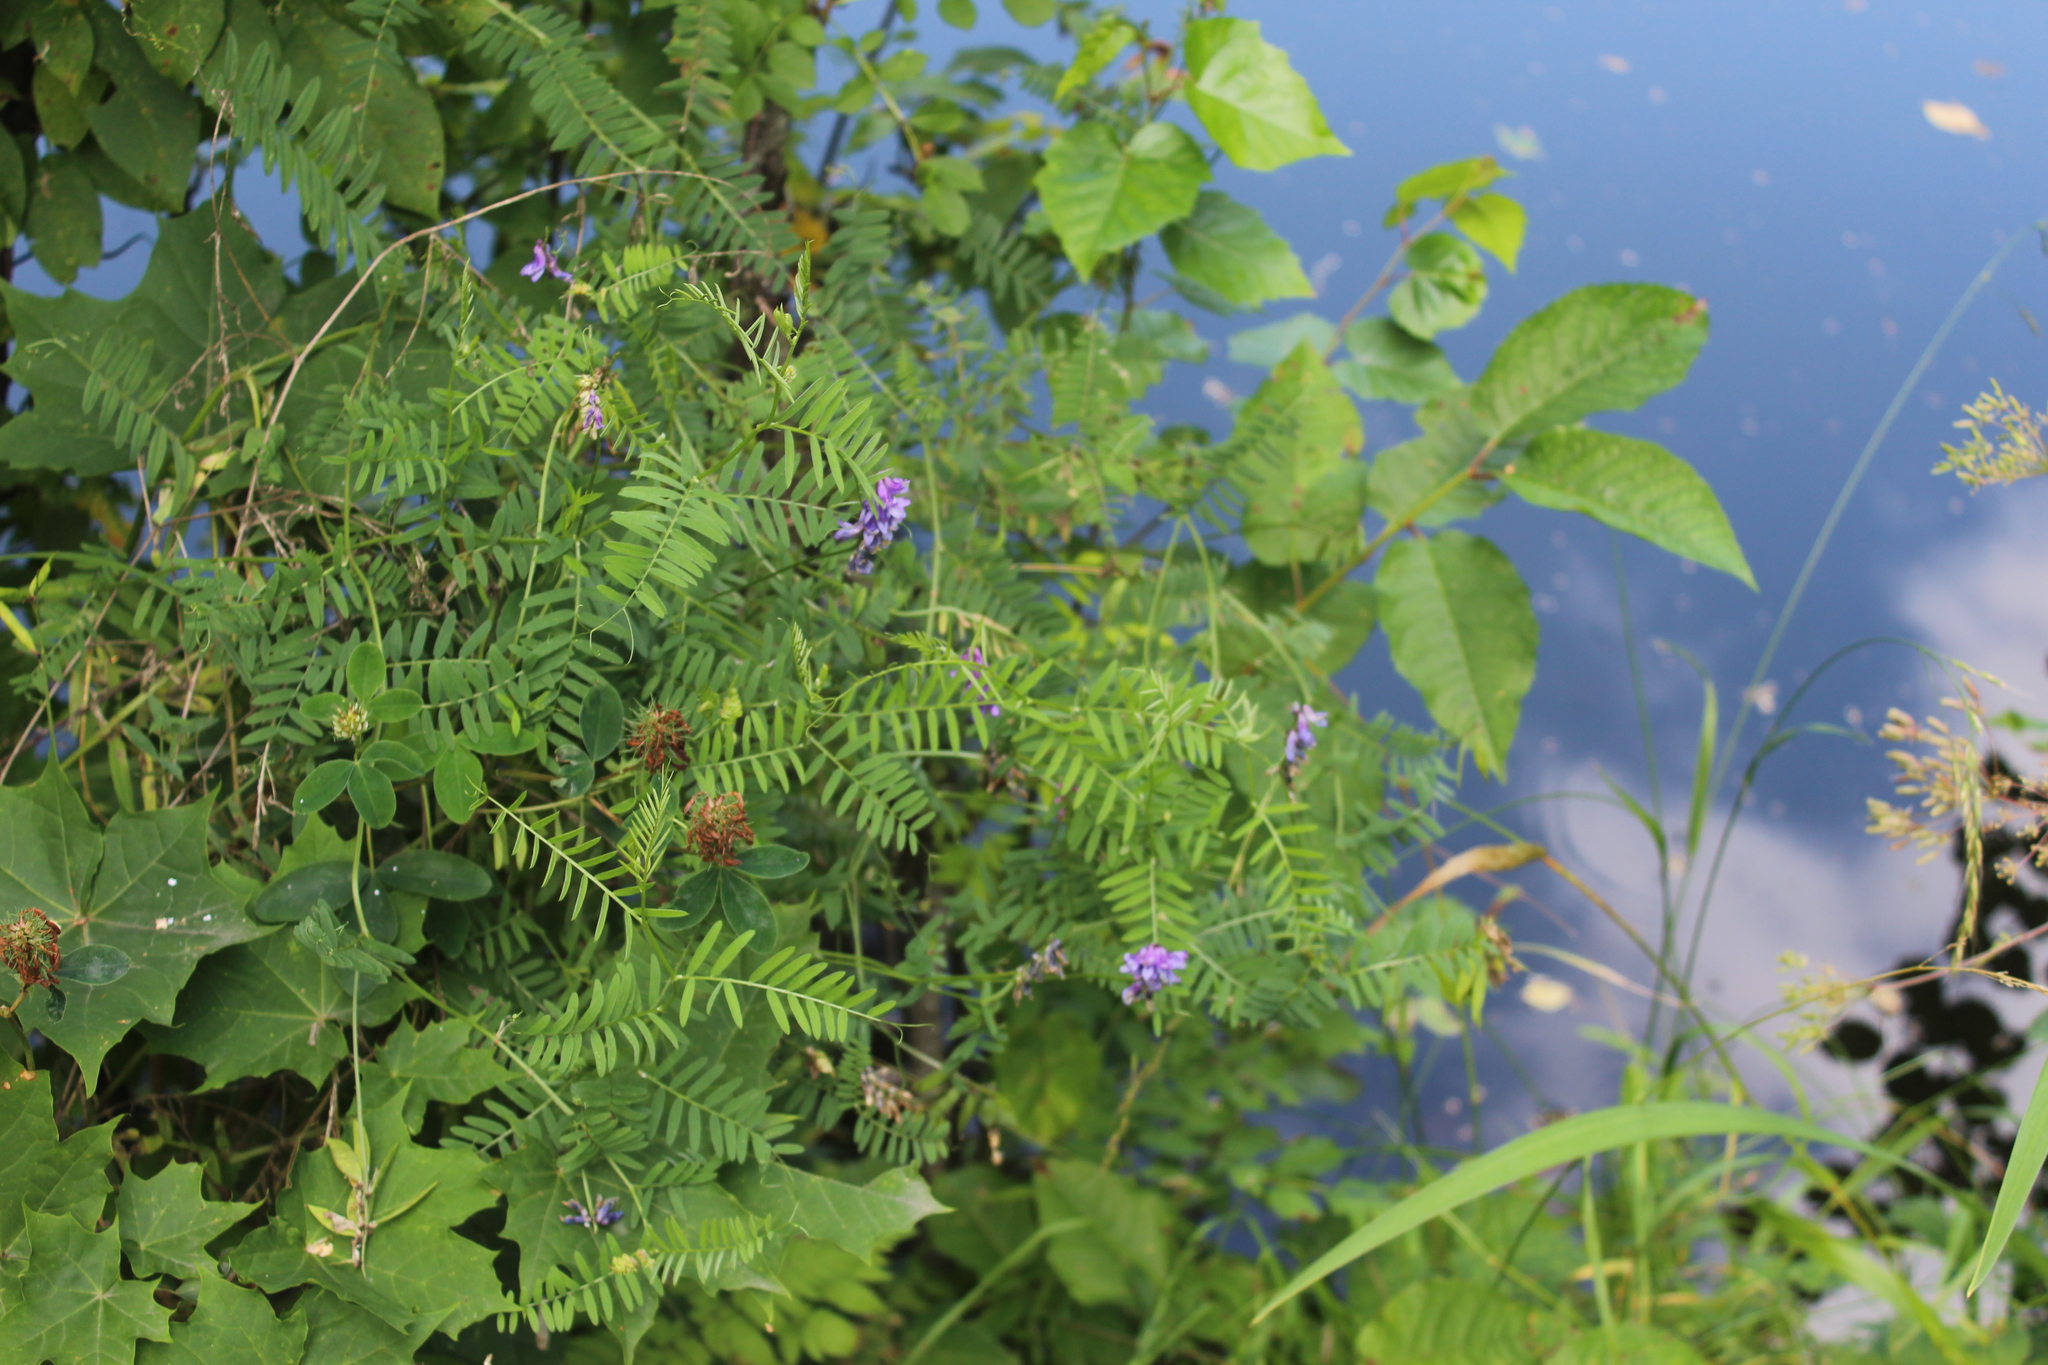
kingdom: Plantae
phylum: Tracheophyta
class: Magnoliopsida
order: Fabales
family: Fabaceae
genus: Vicia
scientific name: Vicia cracca
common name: Bird vetch
